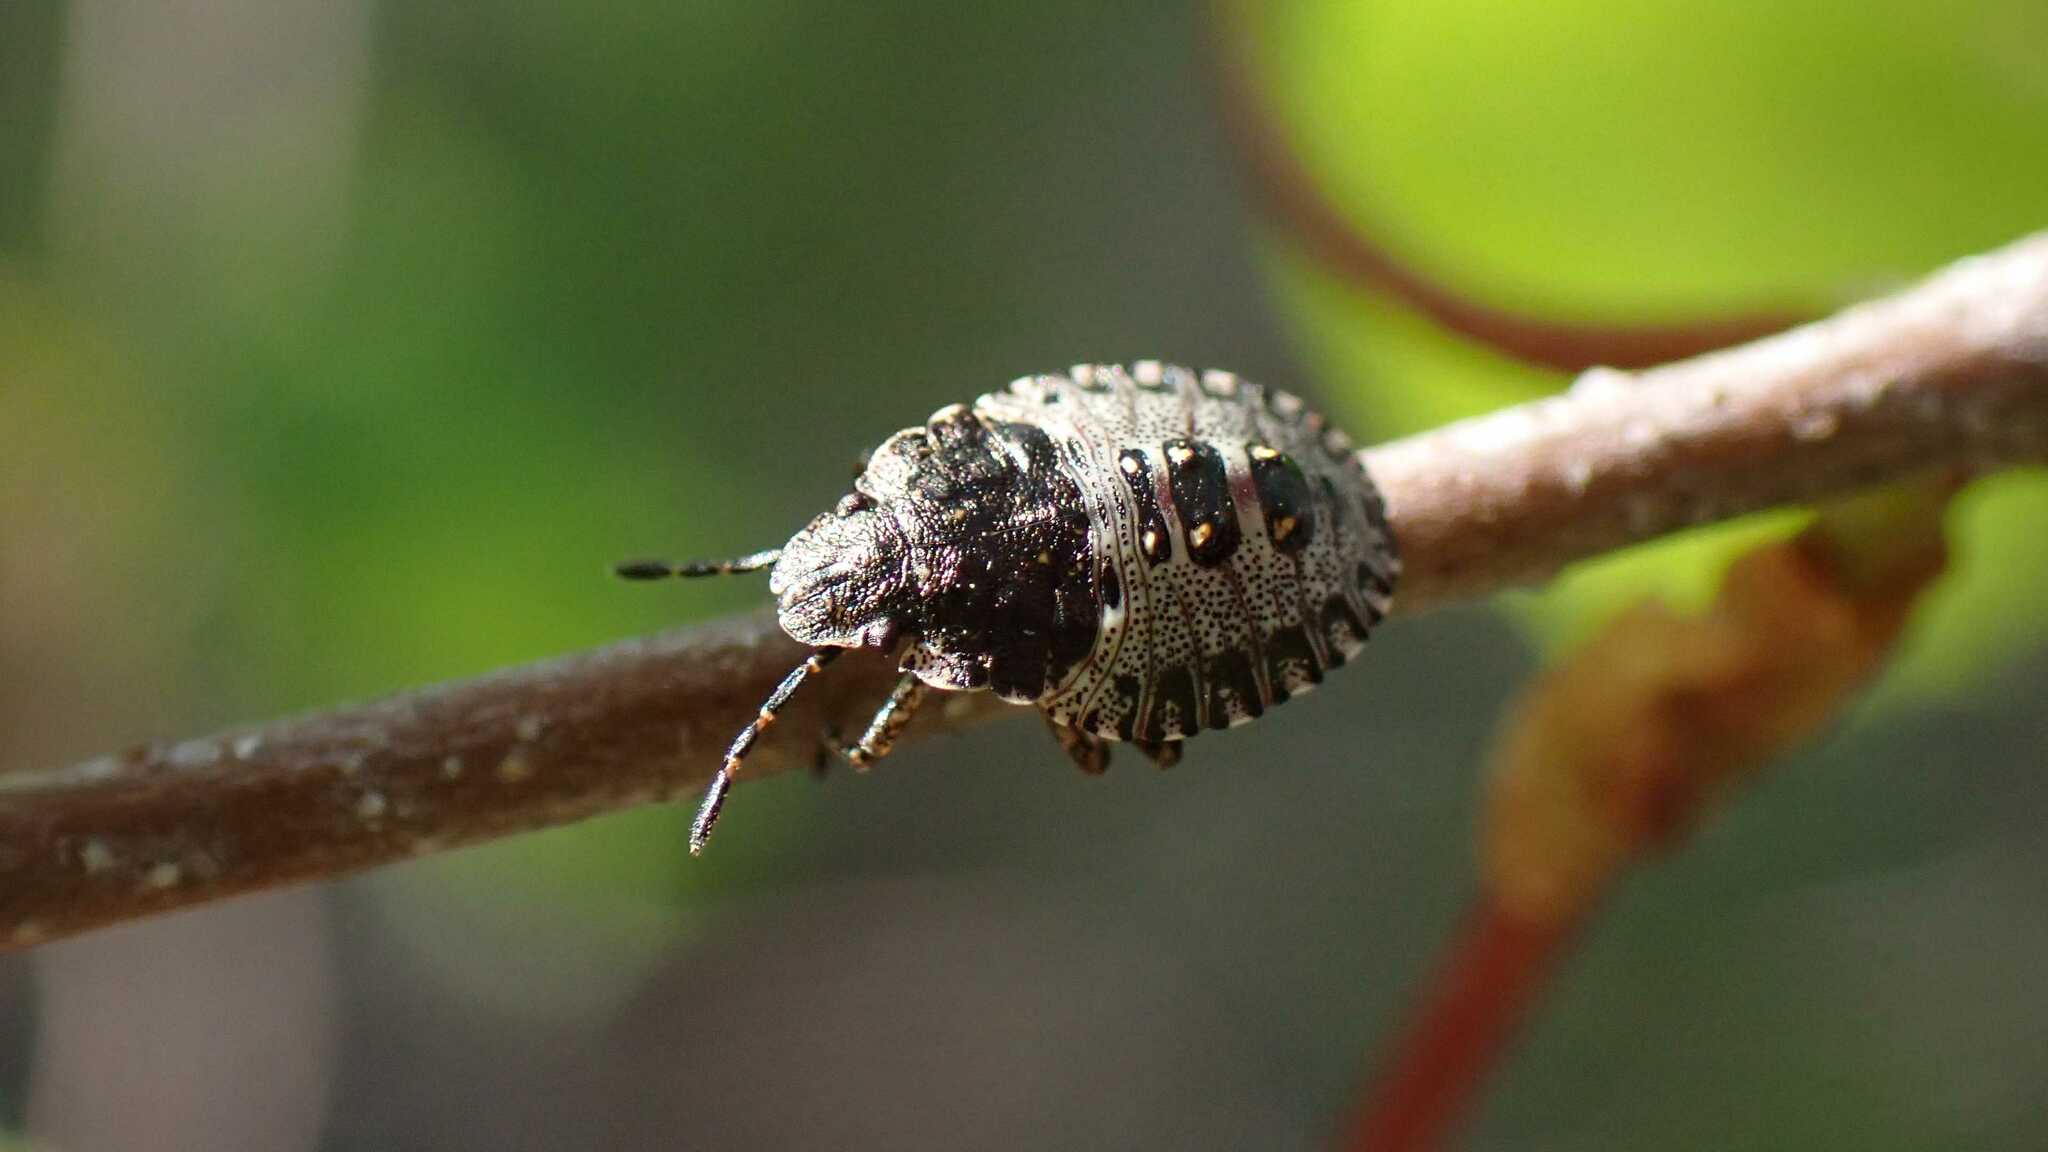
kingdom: Animalia
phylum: Arthropoda
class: Insecta
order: Hemiptera
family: Pentatomidae
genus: Pentatoma
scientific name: Pentatoma rufipes
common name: Forest bug
